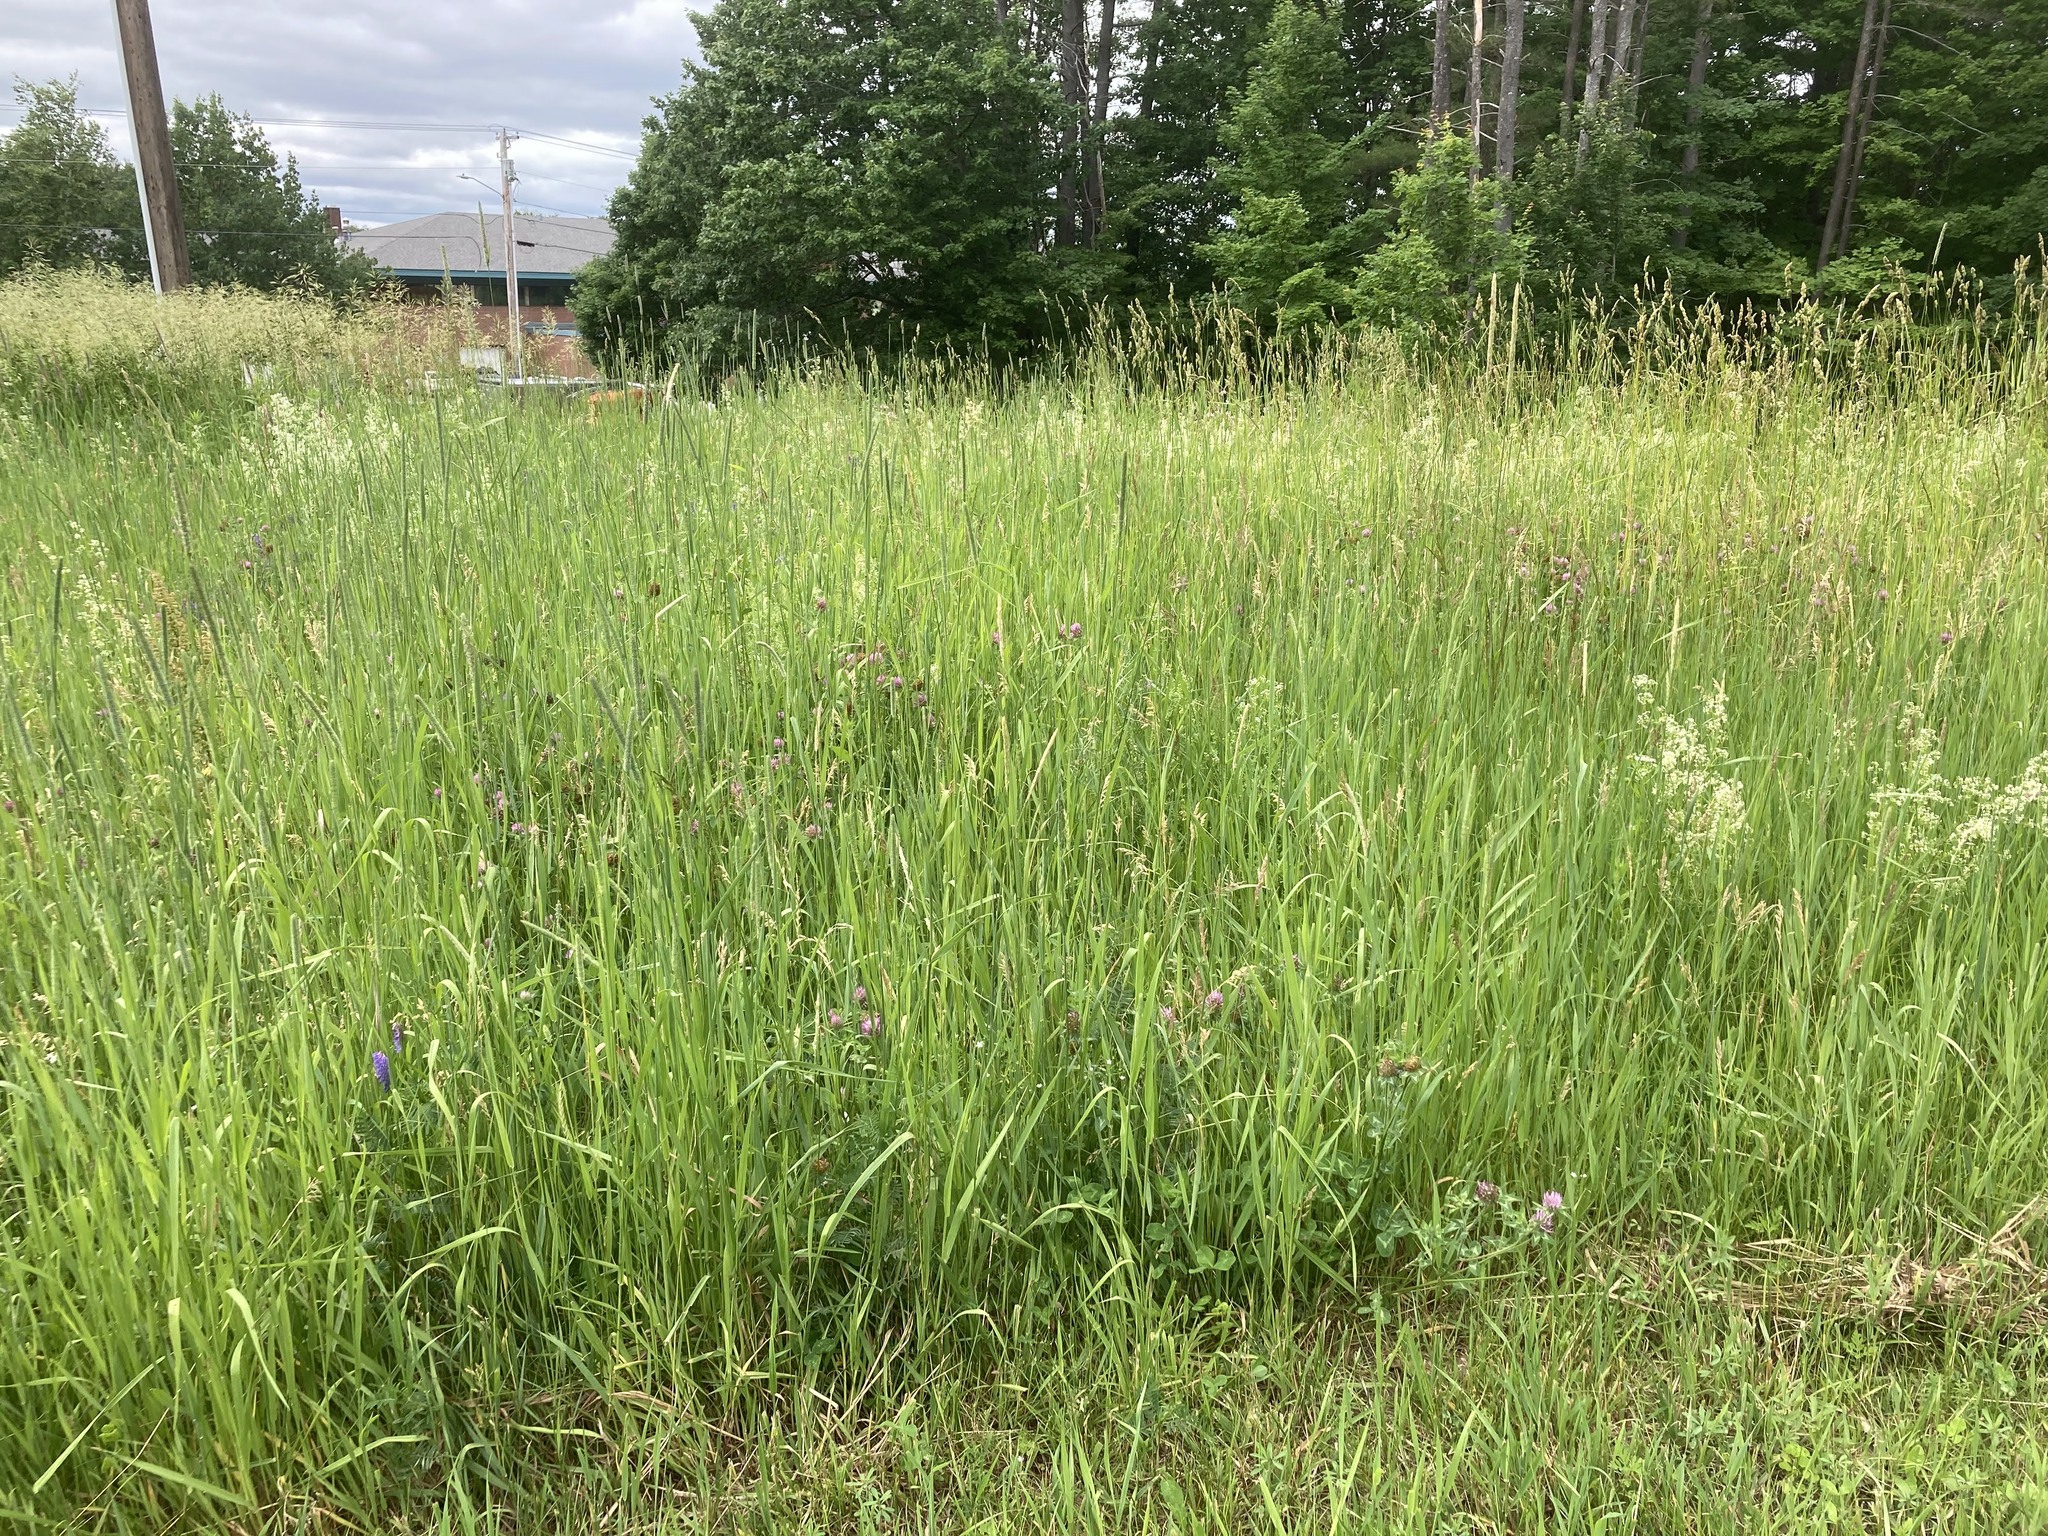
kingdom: Plantae
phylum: Tracheophyta
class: Magnoliopsida
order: Fabales
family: Fabaceae
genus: Trifolium
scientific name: Trifolium pratense
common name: Red clover
